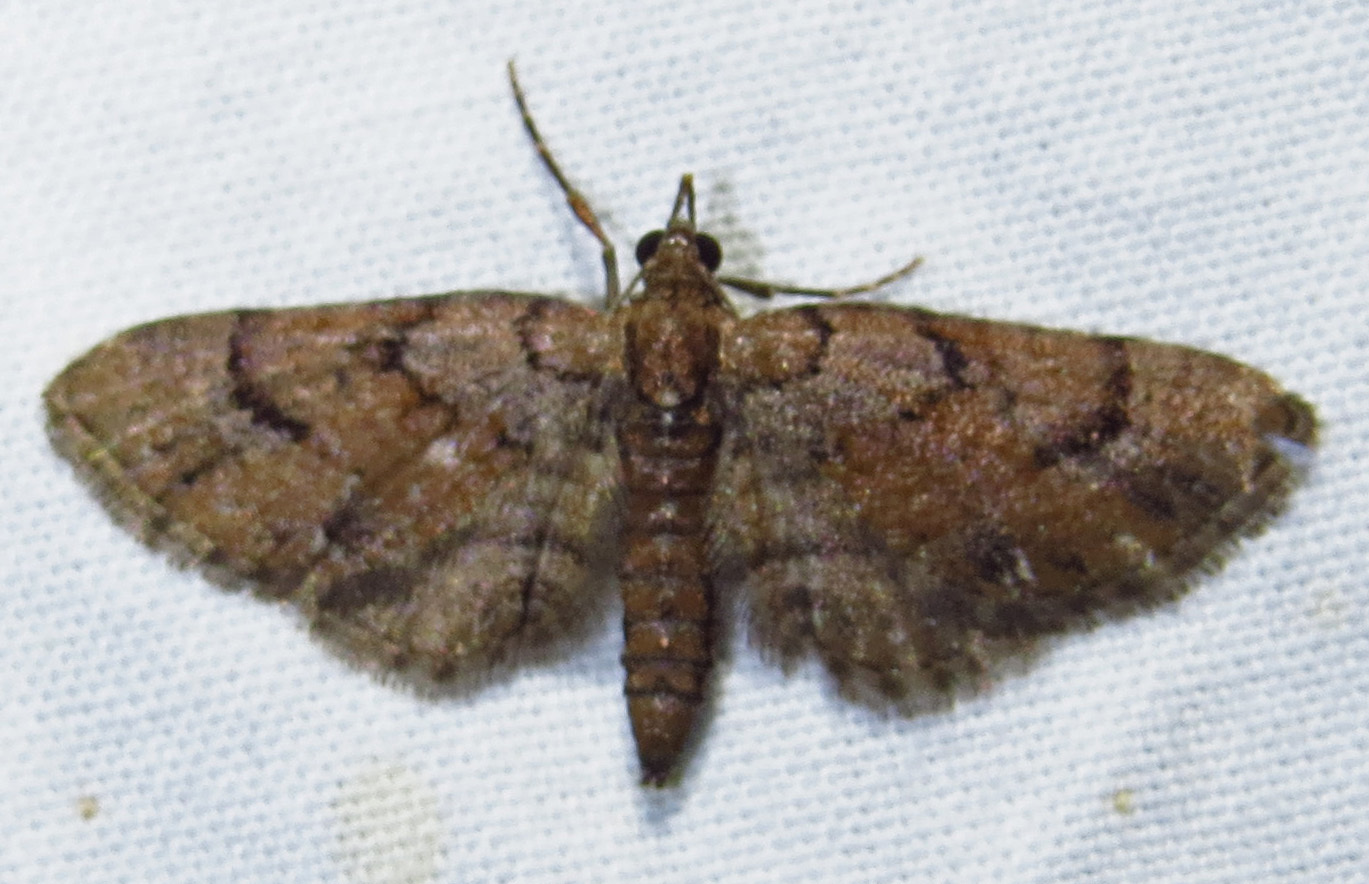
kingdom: Animalia
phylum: Arthropoda
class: Insecta
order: Lepidoptera
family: Geometridae
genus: Eupithecia
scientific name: Eupithecia peckorum
